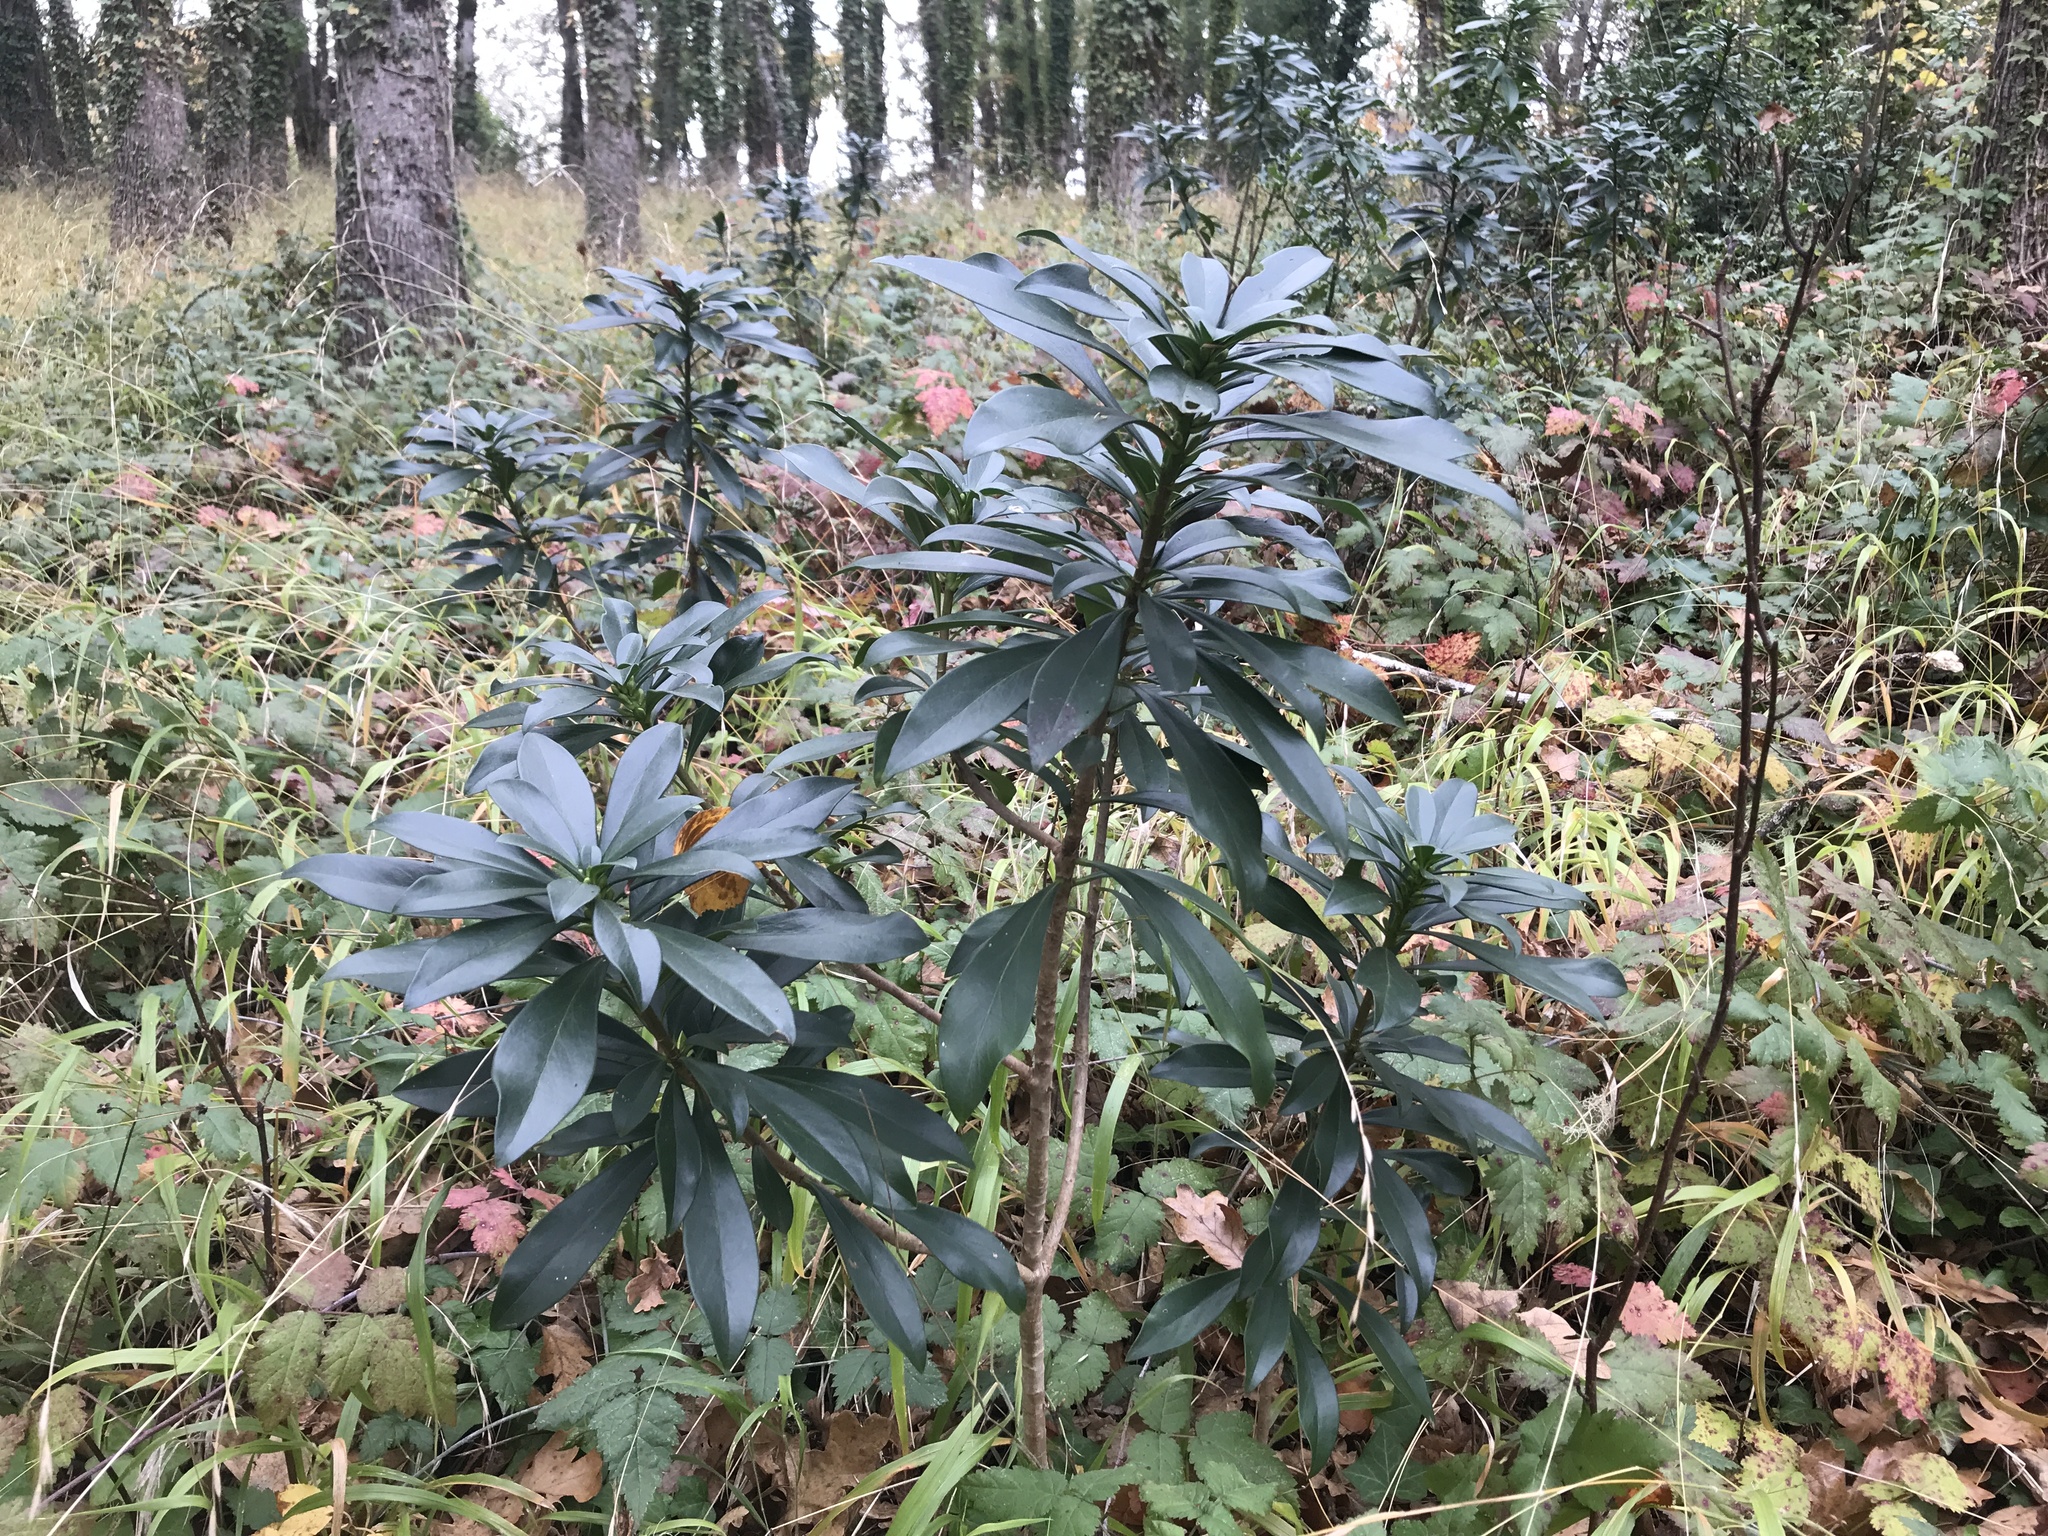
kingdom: Plantae
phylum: Tracheophyta
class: Magnoliopsida
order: Malvales
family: Thymelaeaceae
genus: Daphne
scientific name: Daphne laureola
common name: Spurge-laurel
